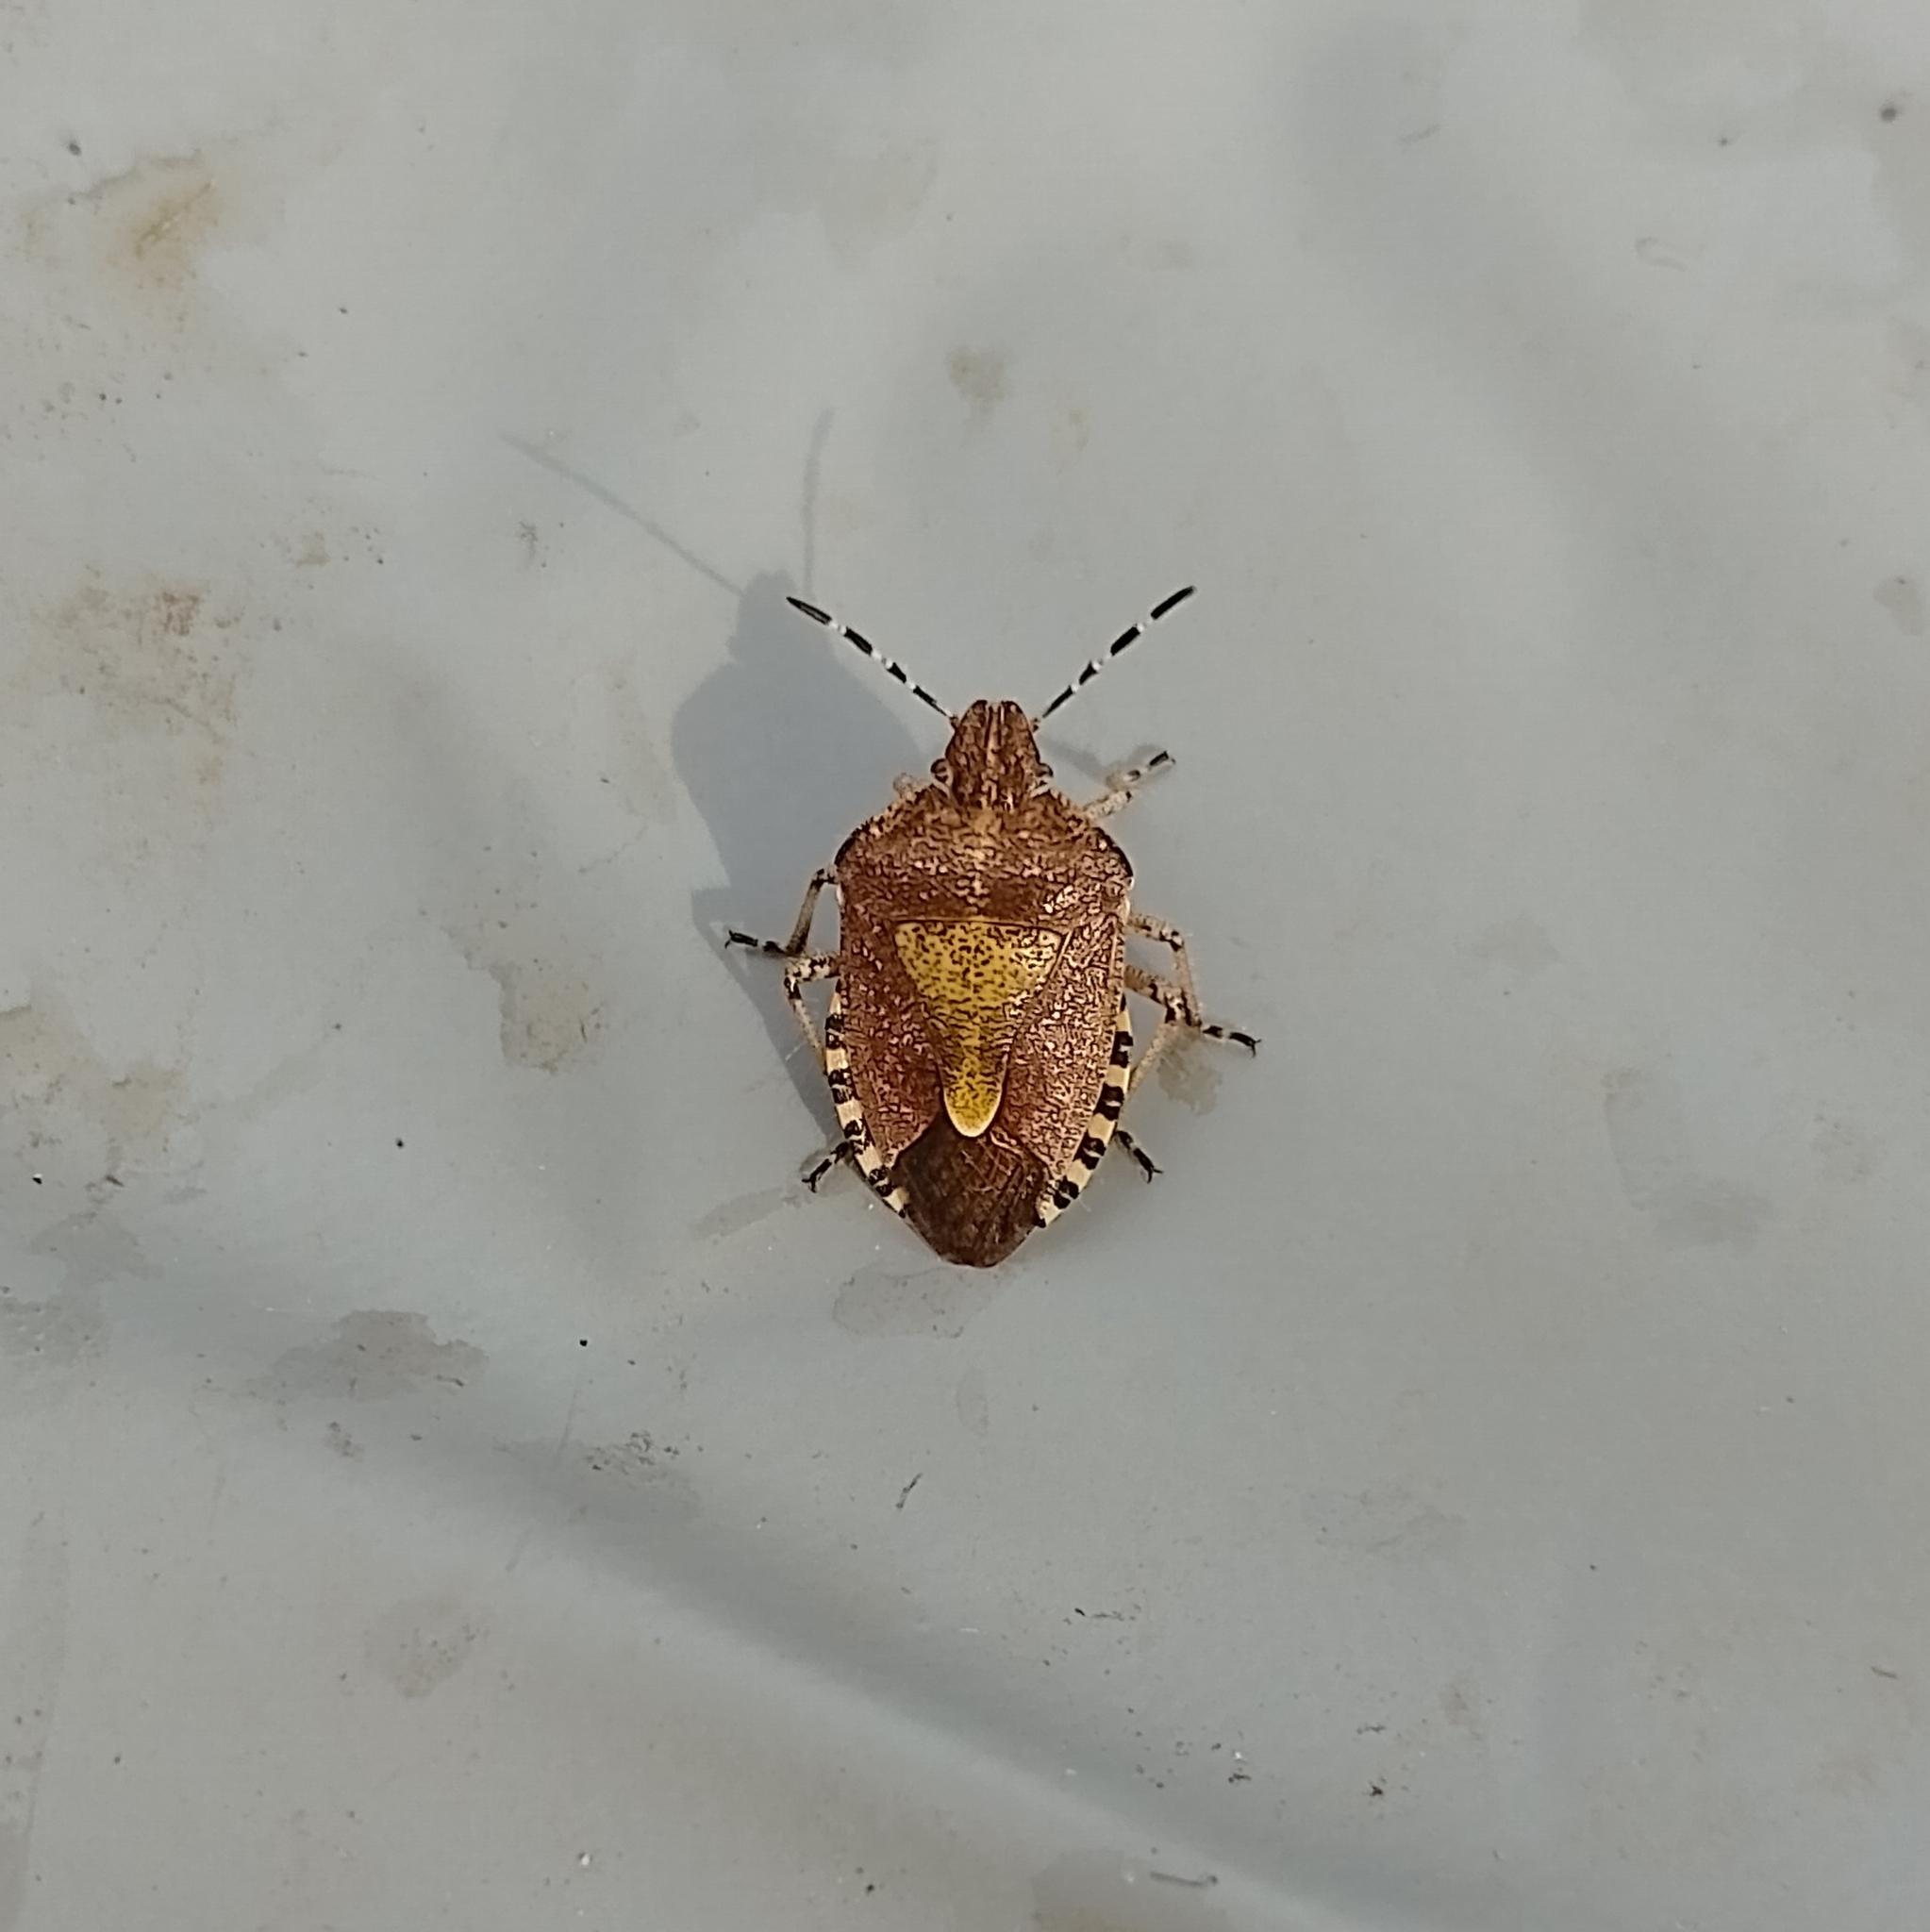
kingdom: Animalia
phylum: Arthropoda
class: Insecta
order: Hemiptera
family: Pentatomidae
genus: Dolycoris
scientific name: Dolycoris baccarum
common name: Sloe bug
